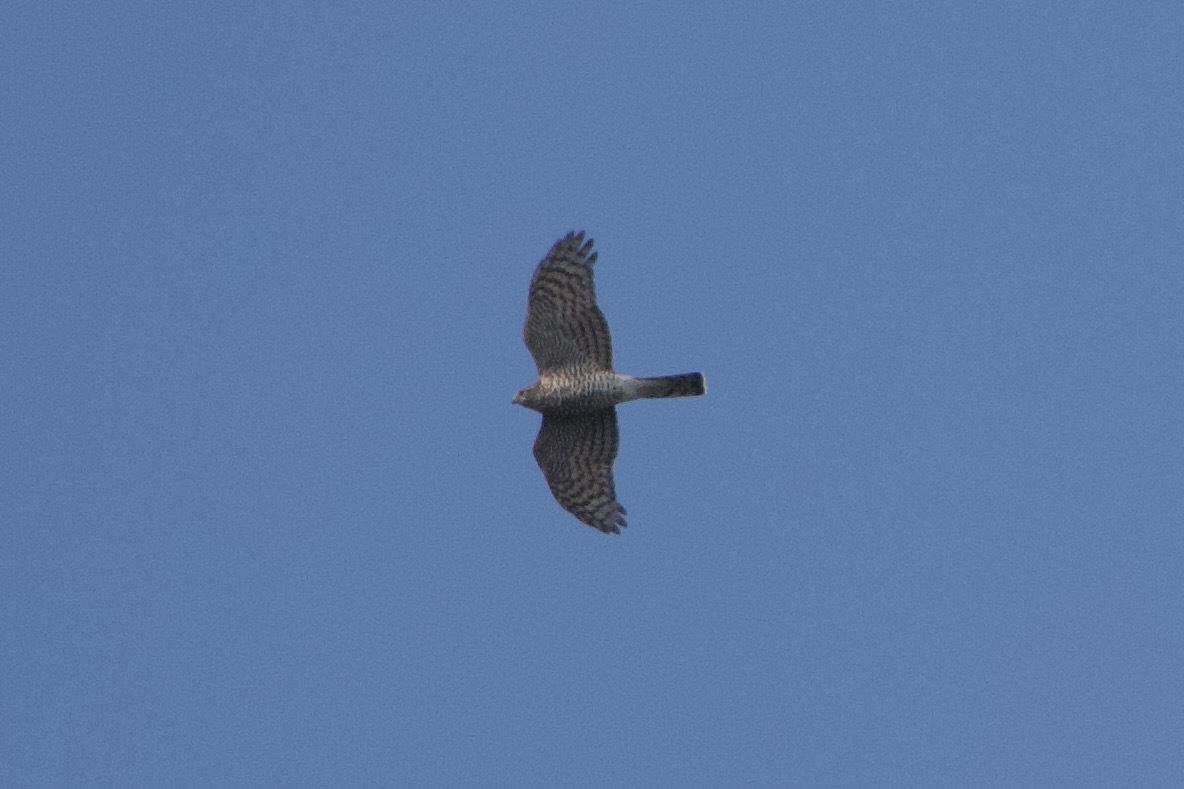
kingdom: Animalia
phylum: Chordata
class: Aves
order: Accipitriformes
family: Accipitridae
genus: Accipiter
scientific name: Accipiter nisus
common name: Eurasian sparrowhawk
